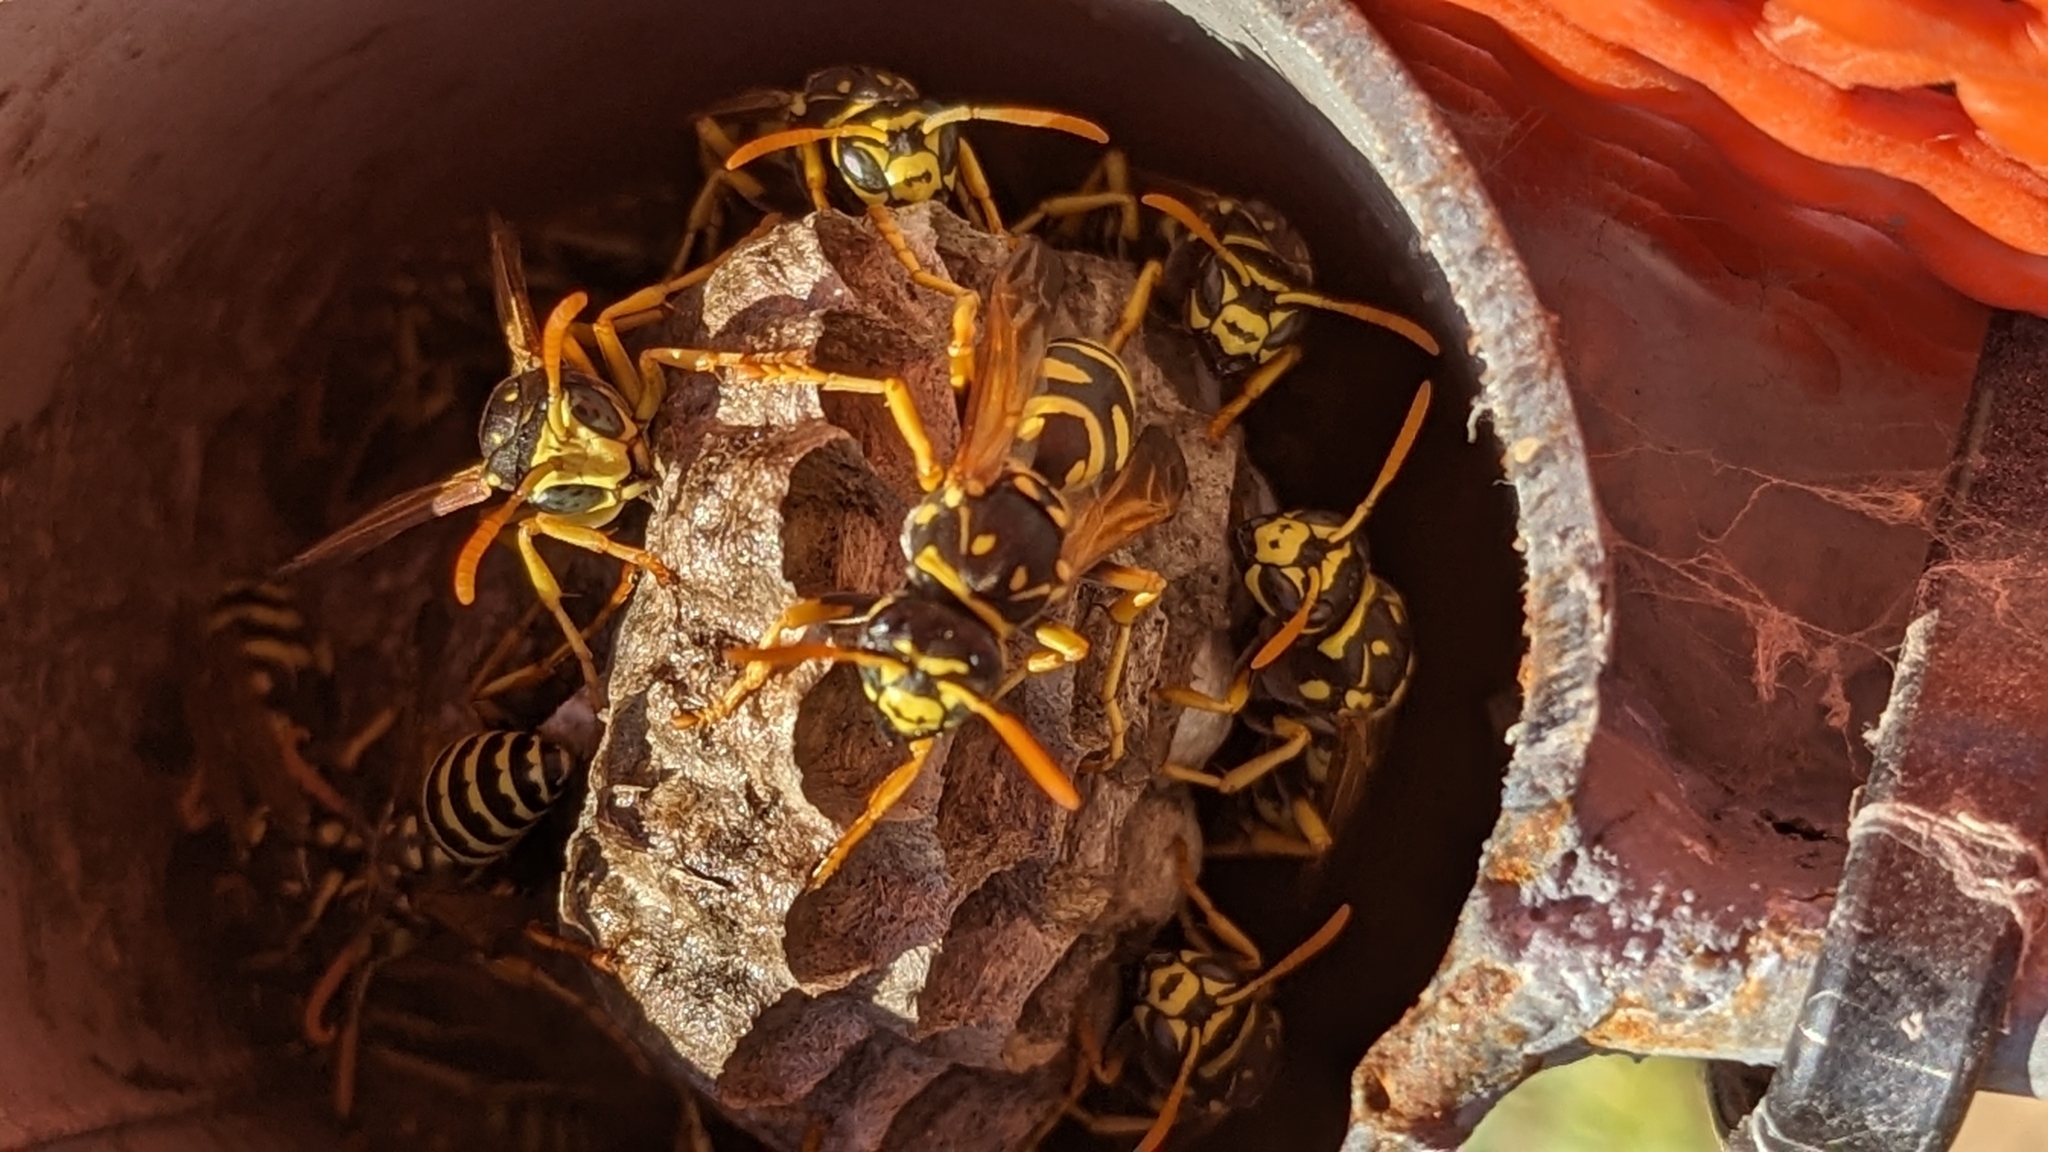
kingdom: Animalia
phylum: Arthropoda
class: Insecta
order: Hymenoptera
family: Eumenidae
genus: Polistes
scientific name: Polistes dominula
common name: Paper wasp
